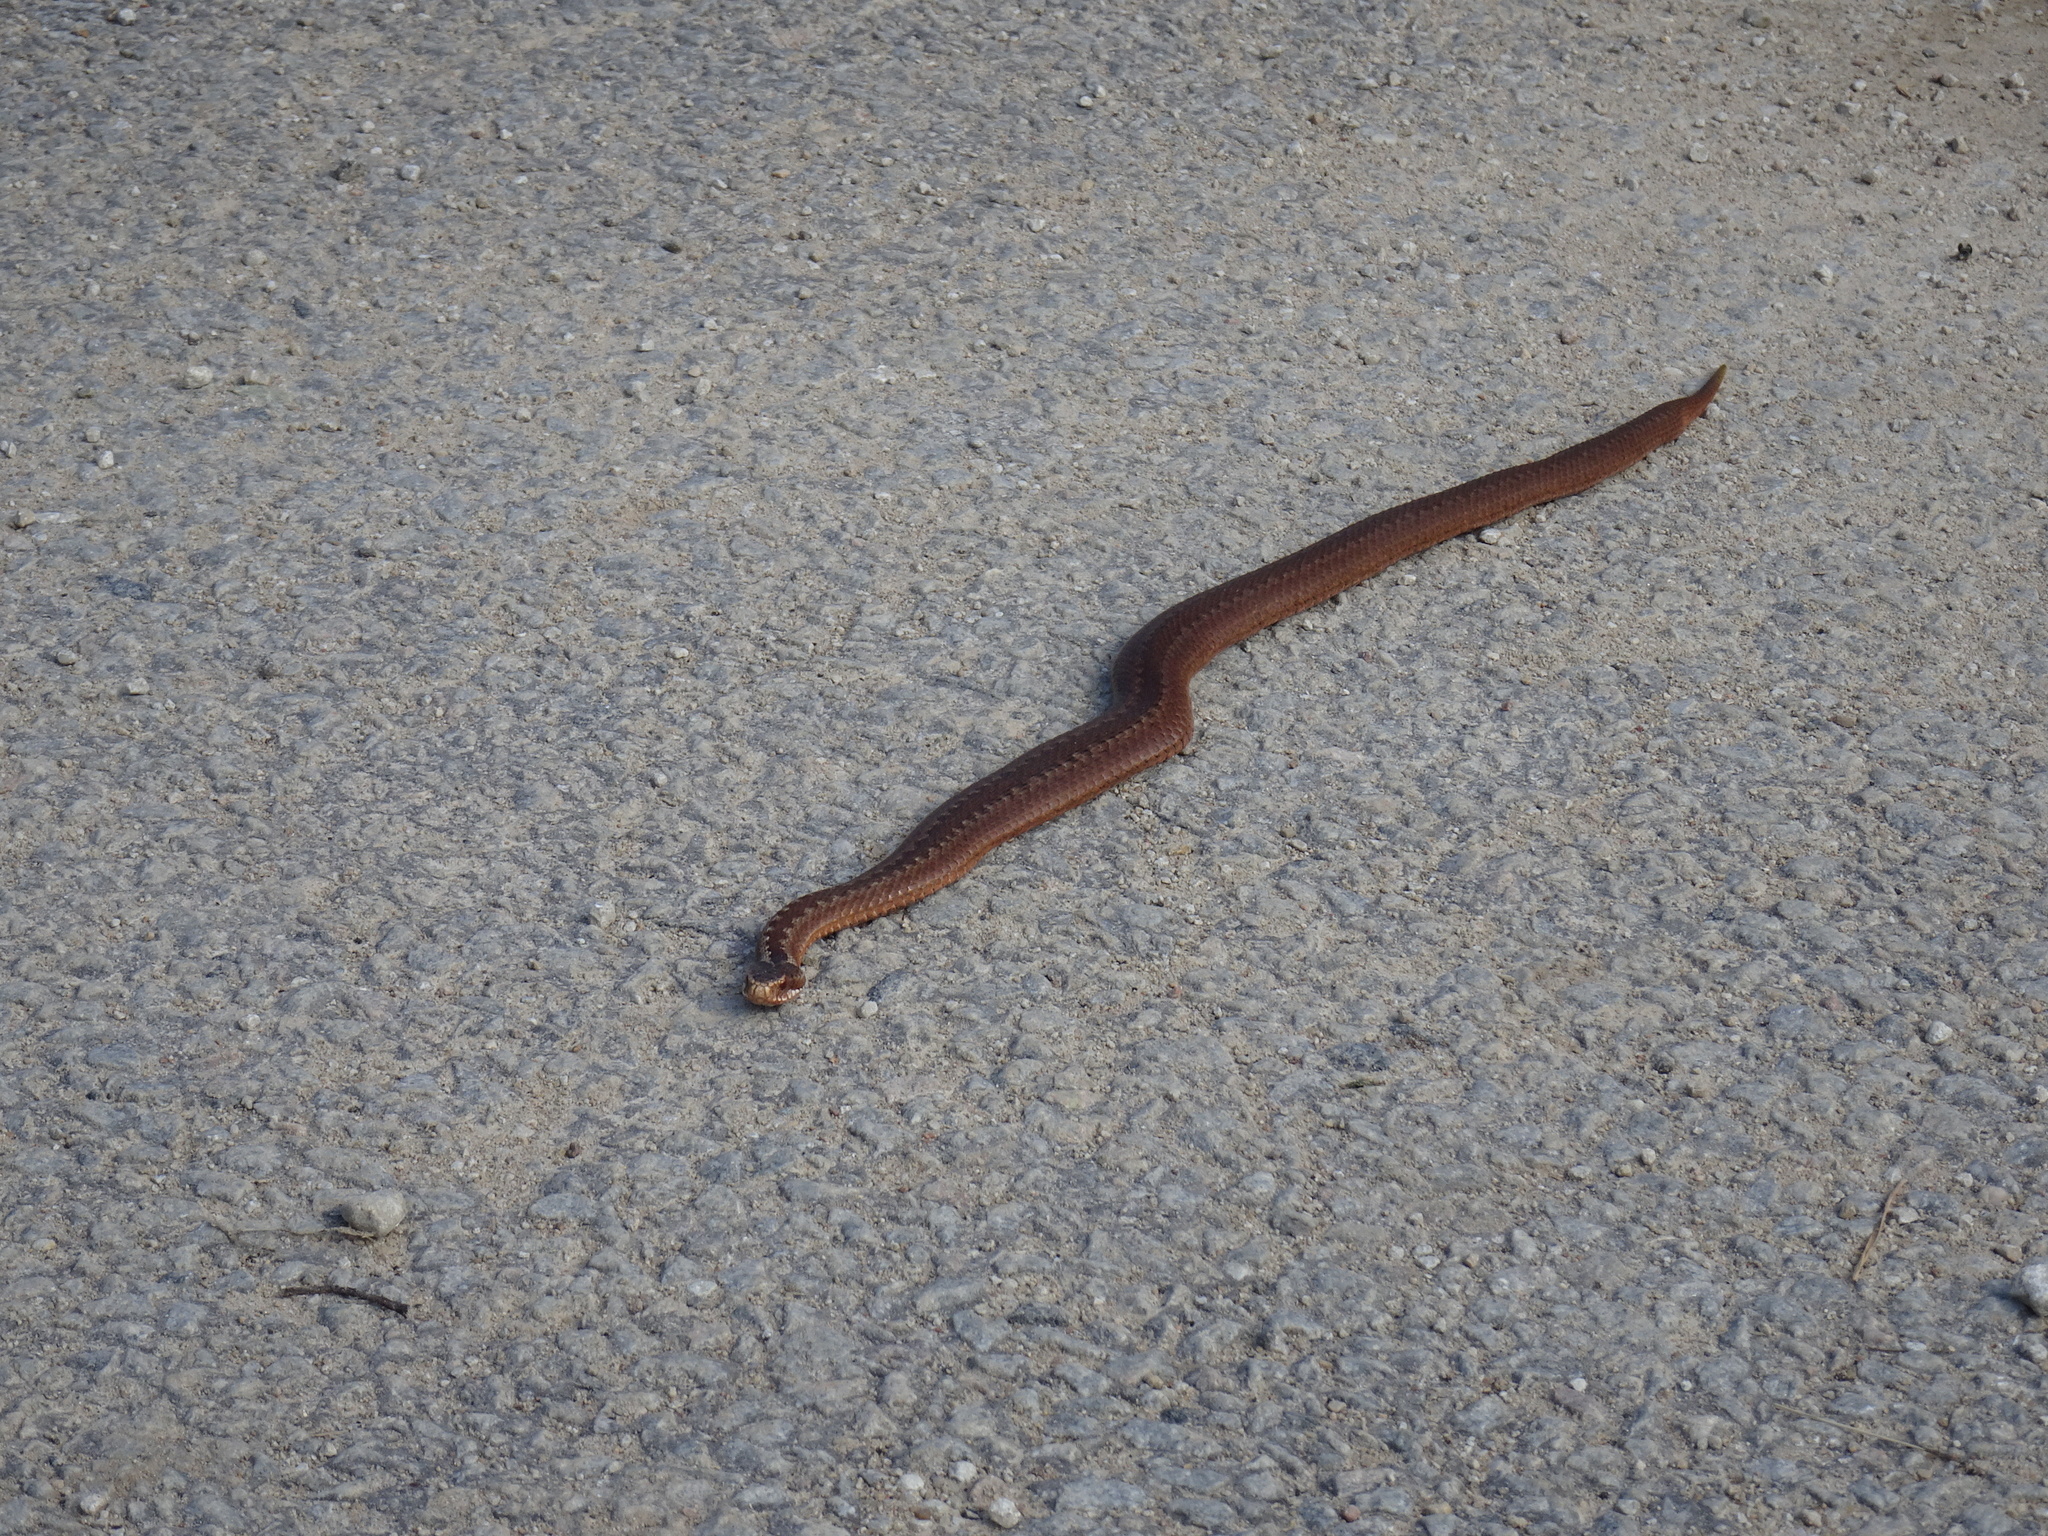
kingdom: Animalia
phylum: Chordata
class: Squamata
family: Viperidae
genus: Vipera
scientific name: Vipera berus
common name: Adder
